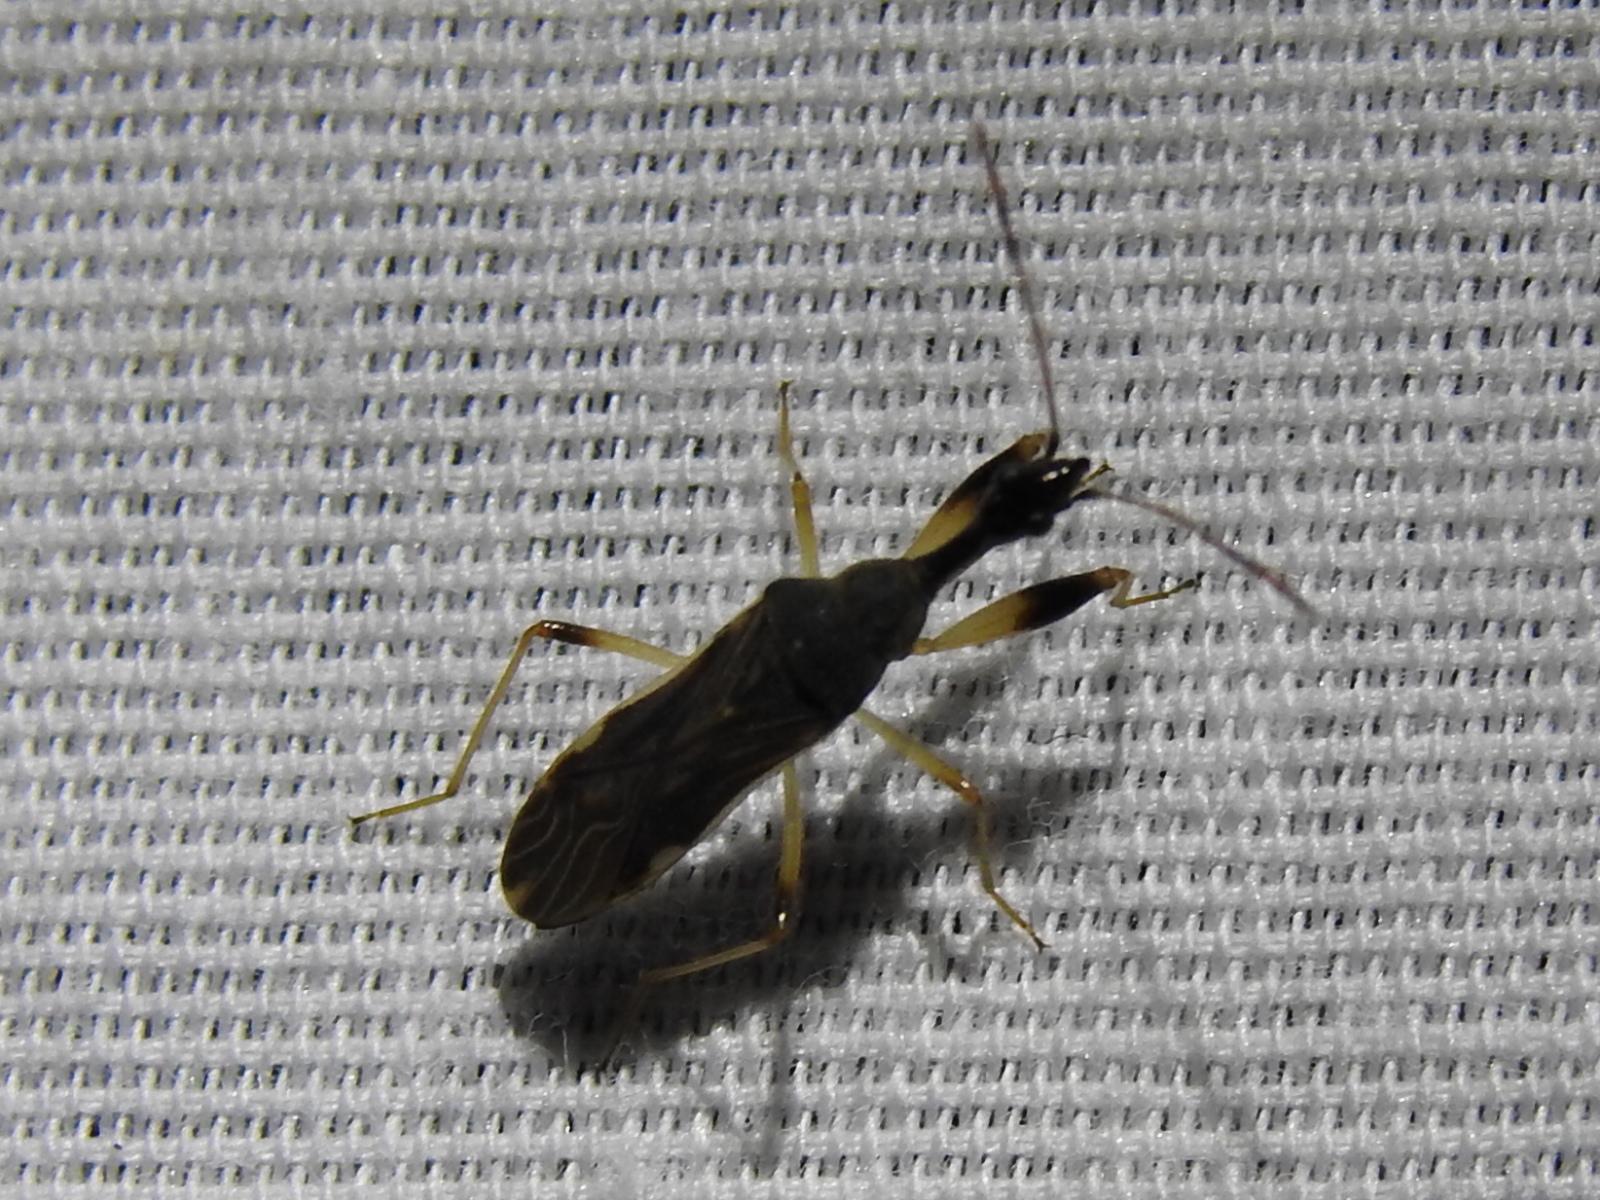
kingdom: Animalia
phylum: Arthropoda
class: Insecta
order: Hemiptera
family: Rhyparochromidae
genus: Myodocha
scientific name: Myodocha serripes
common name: Long-necked seed bug
